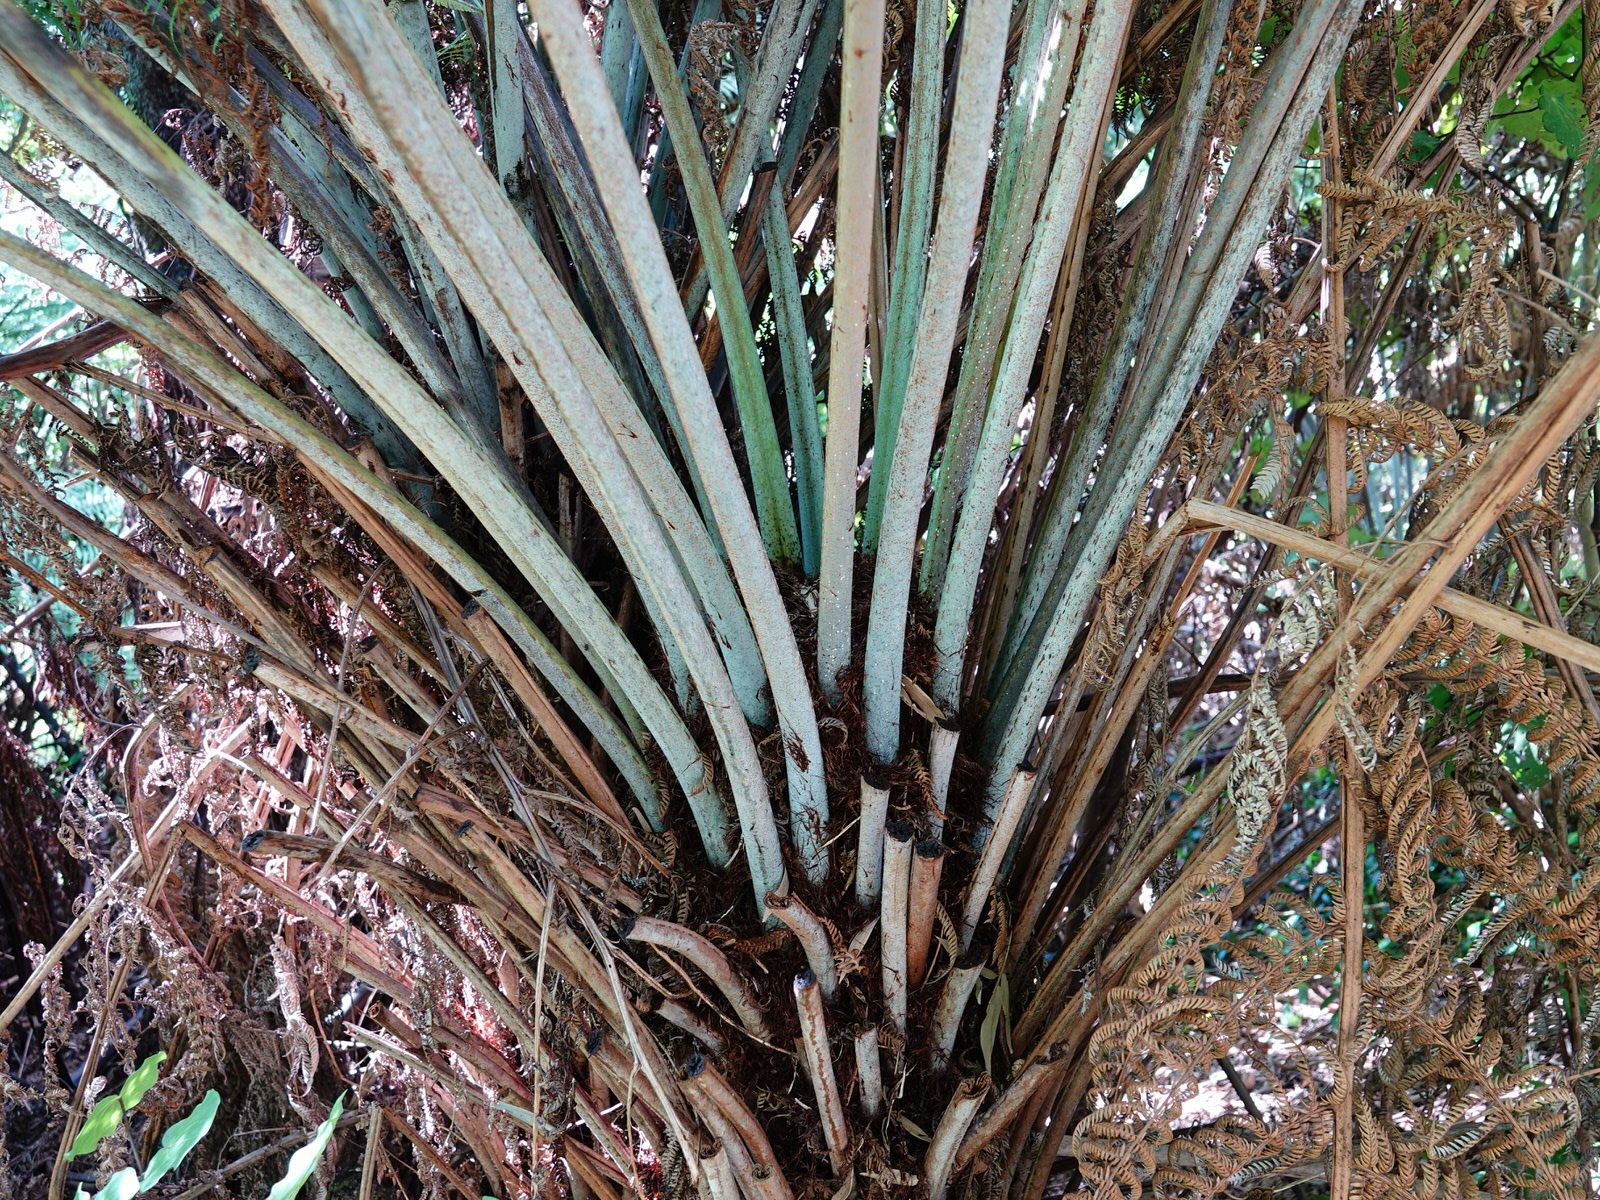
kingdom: Plantae
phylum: Tracheophyta
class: Polypodiopsida
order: Cyatheales
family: Cyatheaceae
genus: Alsophila
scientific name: Alsophila dealbata
